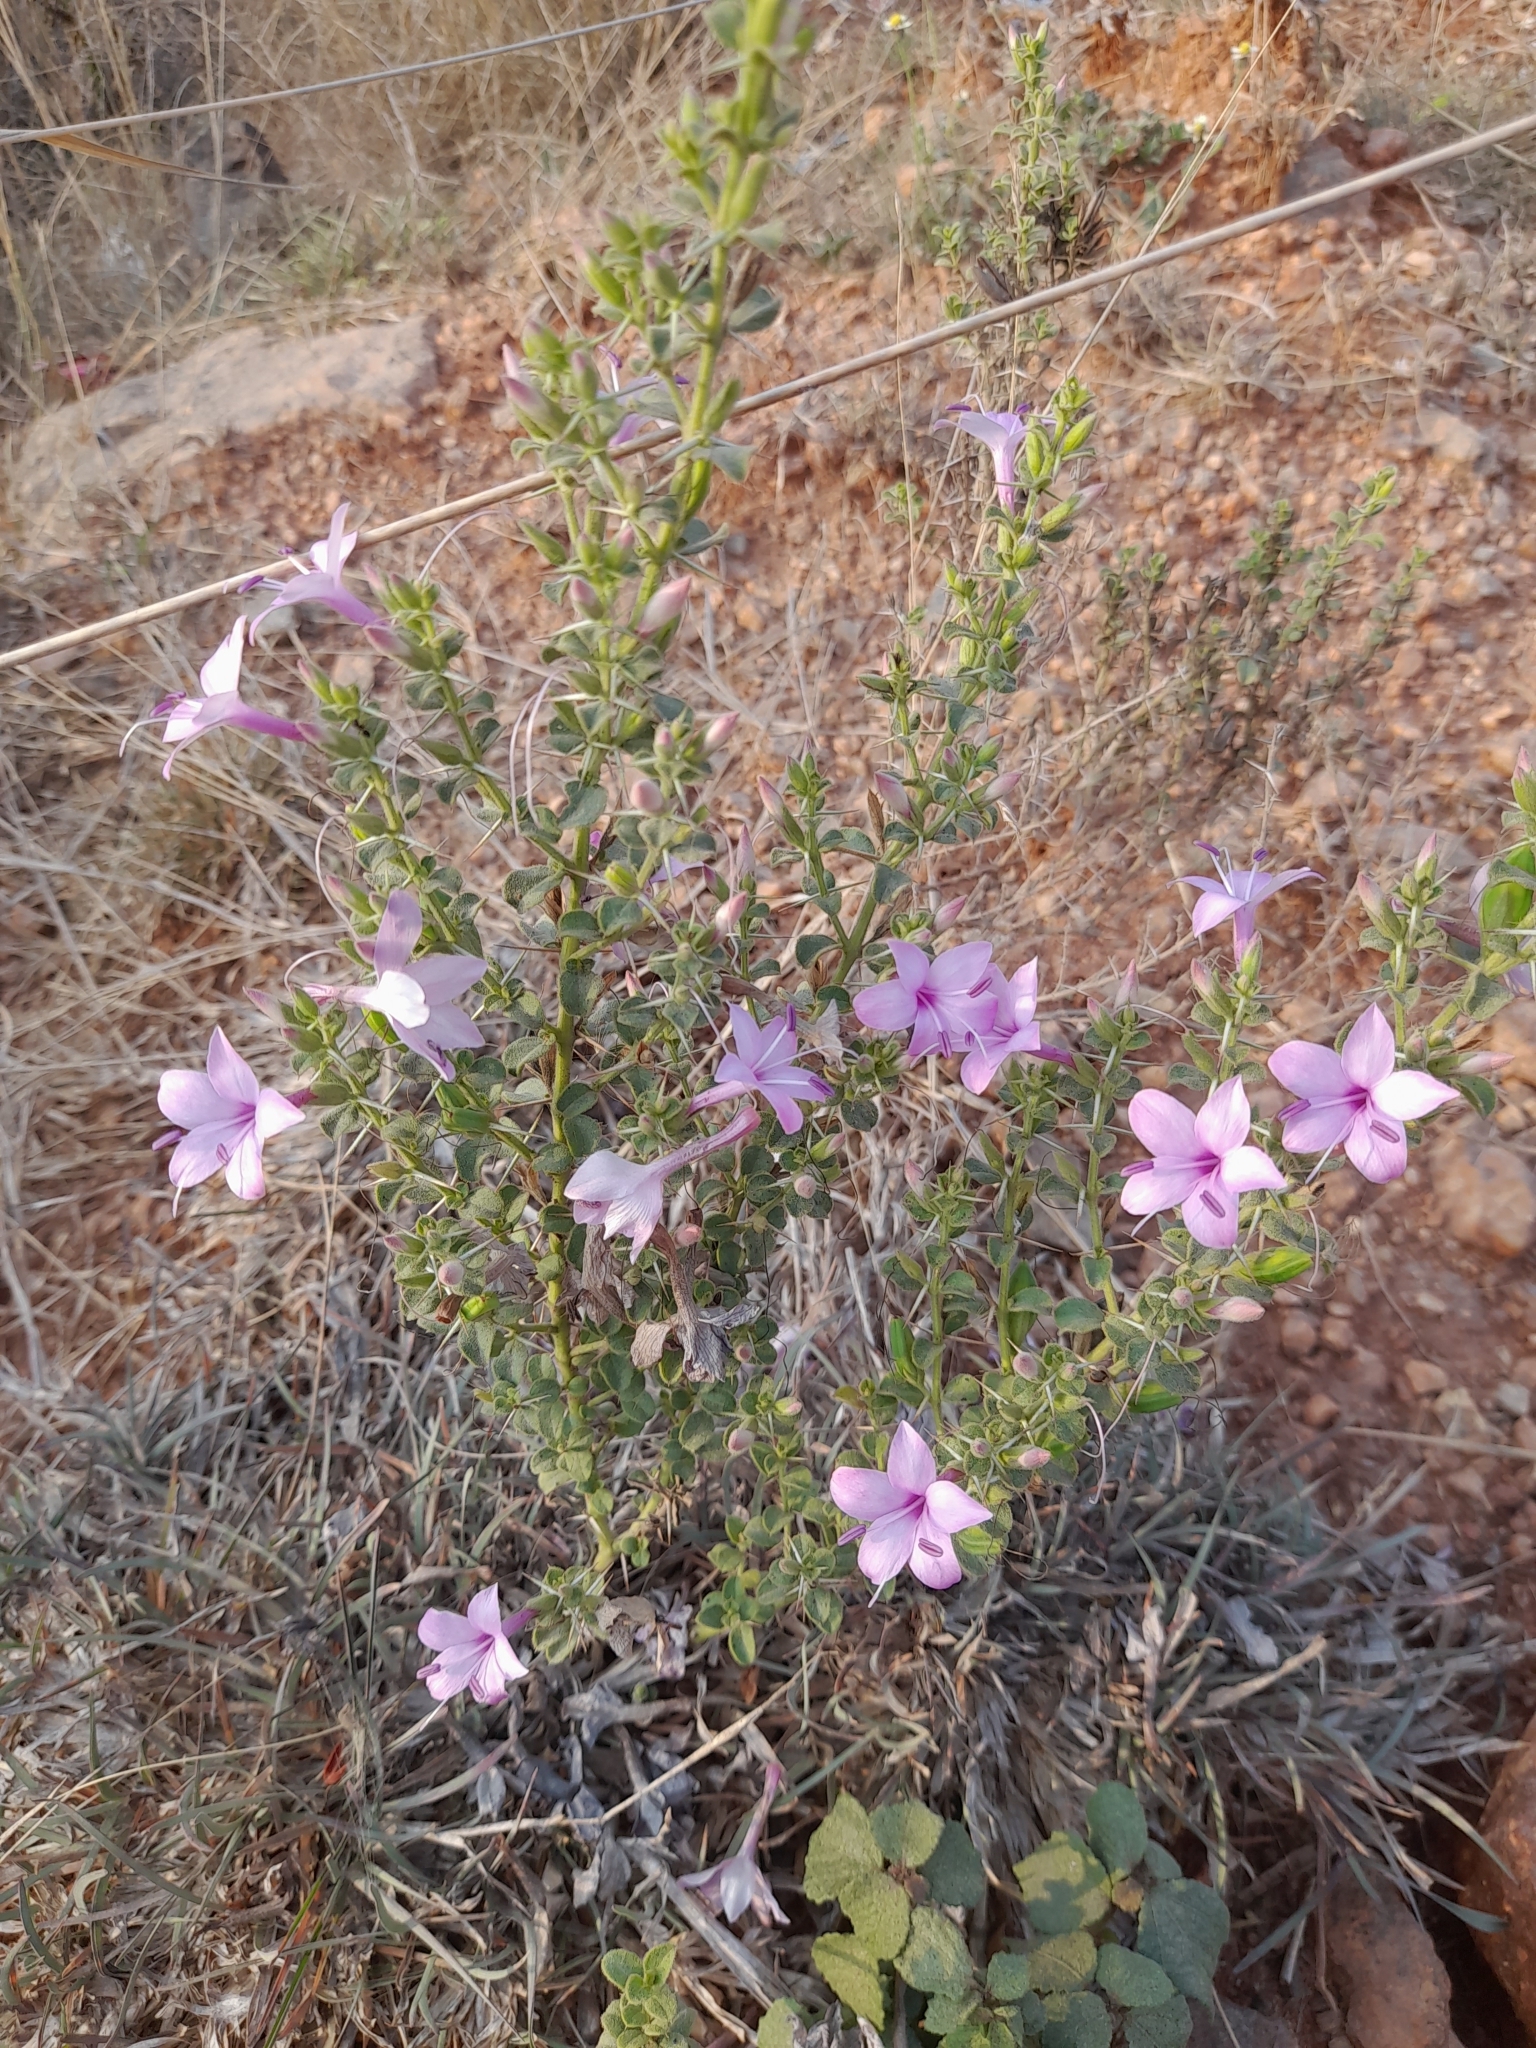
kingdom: Plantae
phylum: Tracheophyta
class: Magnoliopsida
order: Lamiales
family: Acanthaceae
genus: Barleria
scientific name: Barleria mysorensis
